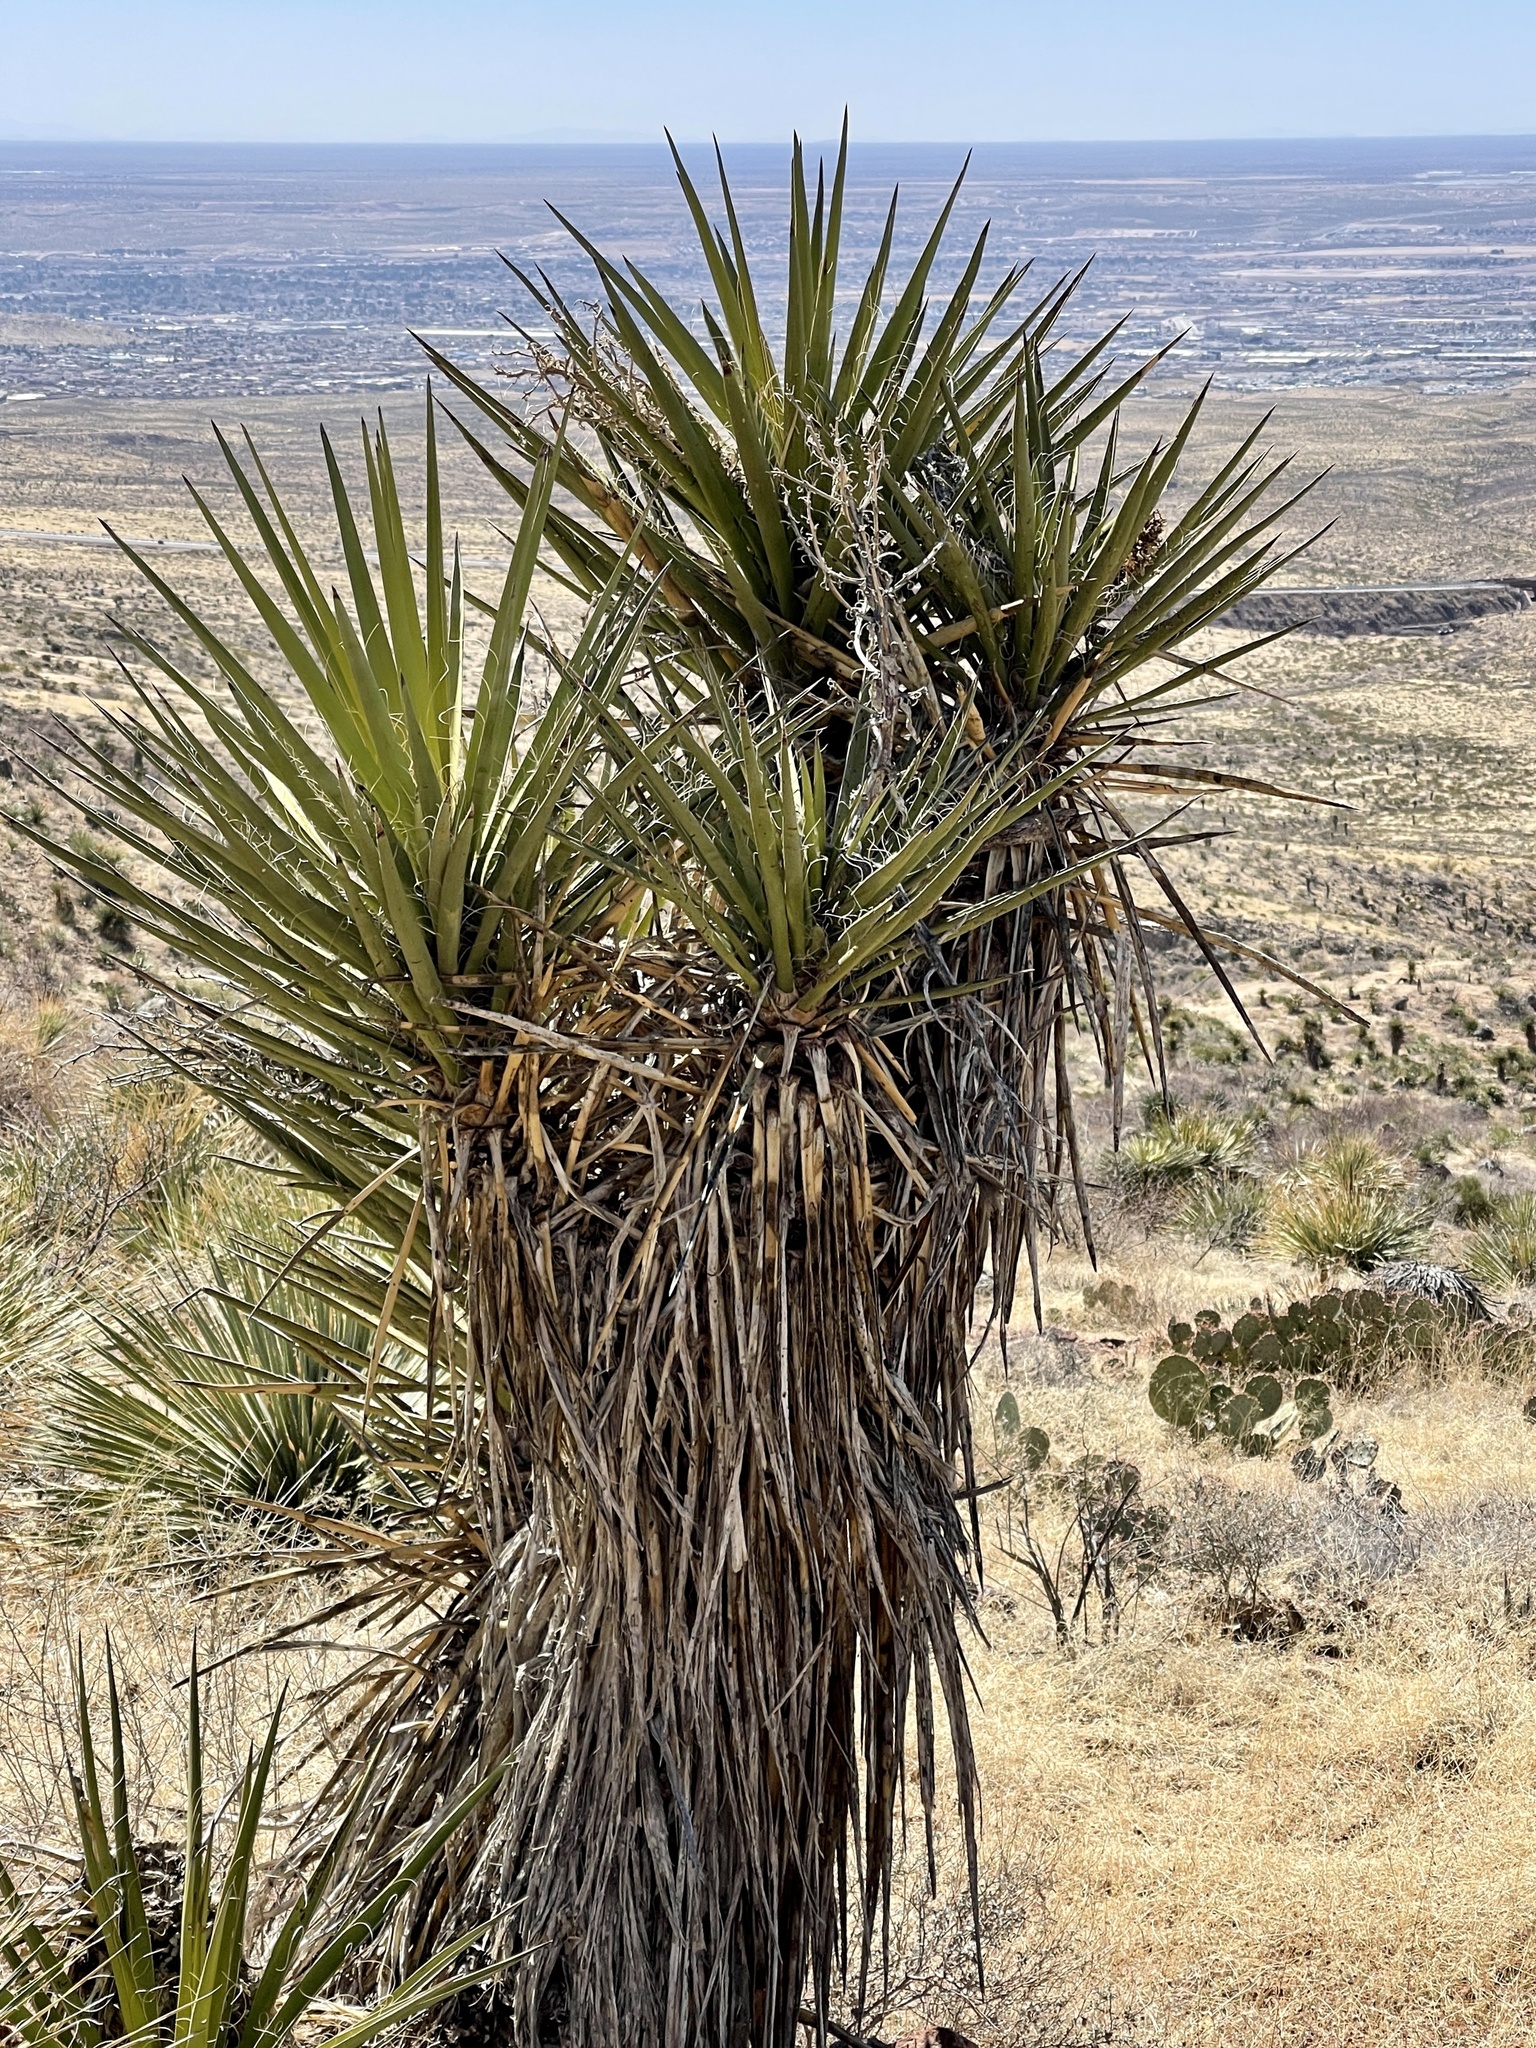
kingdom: Plantae
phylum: Tracheophyta
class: Liliopsida
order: Asparagales
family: Asparagaceae
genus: Yucca
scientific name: Yucca treculiana
